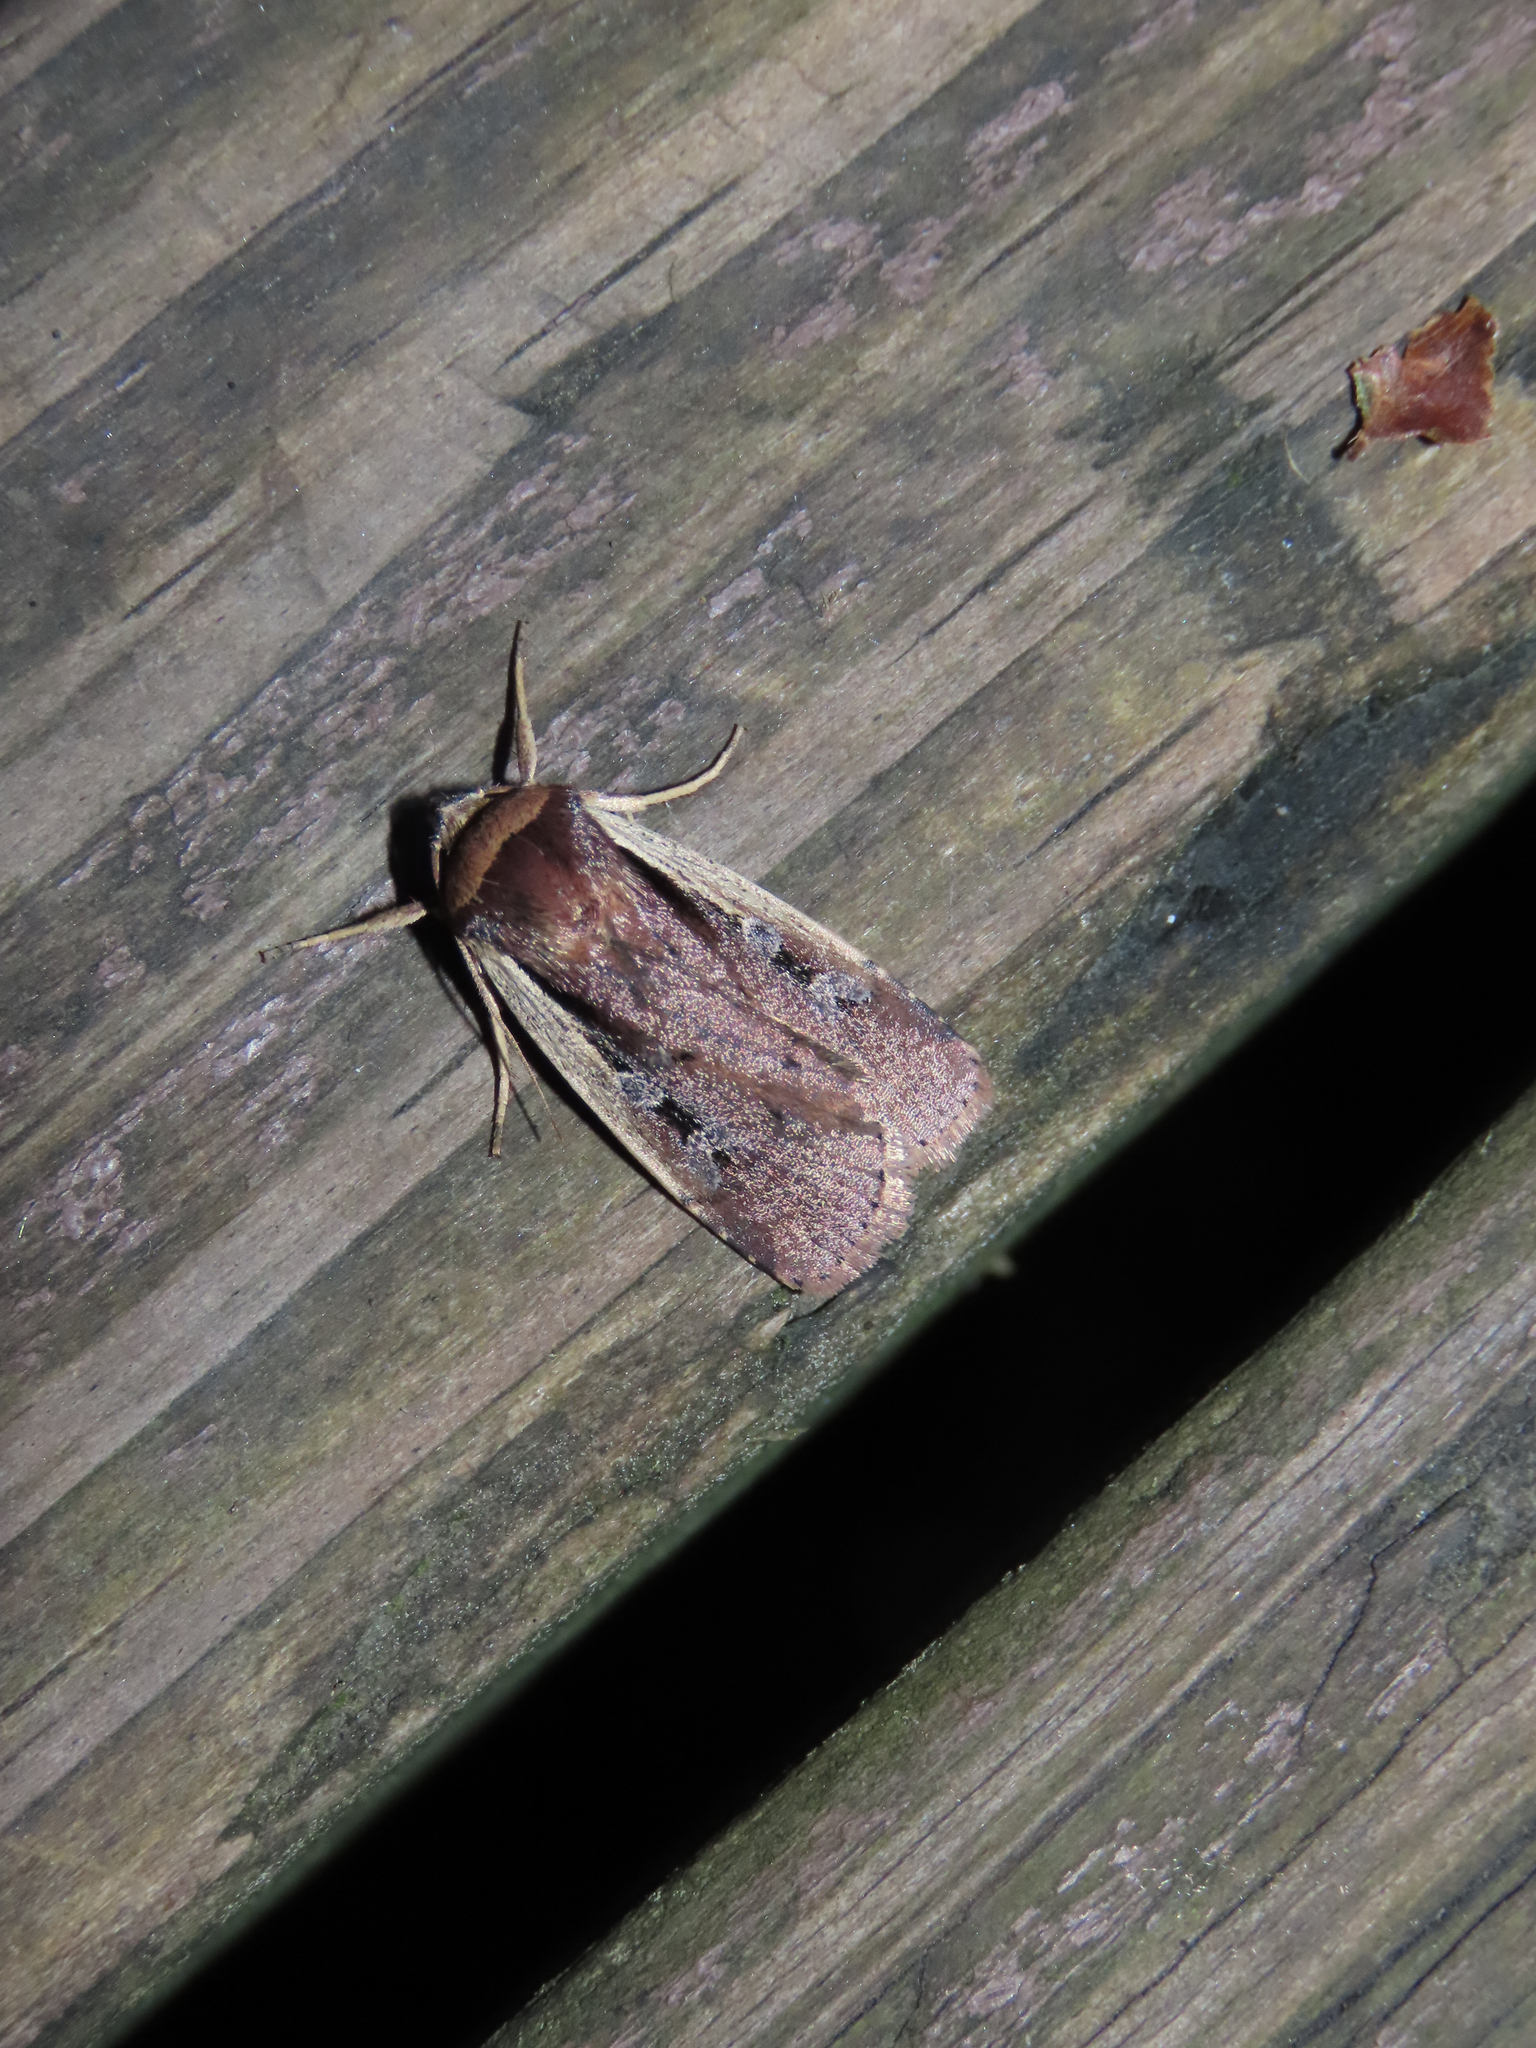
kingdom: Animalia
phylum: Arthropoda
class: Insecta
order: Lepidoptera
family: Noctuidae
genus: Ochropleura
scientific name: Ochropleura implecta
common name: Flame-shouldered dart
